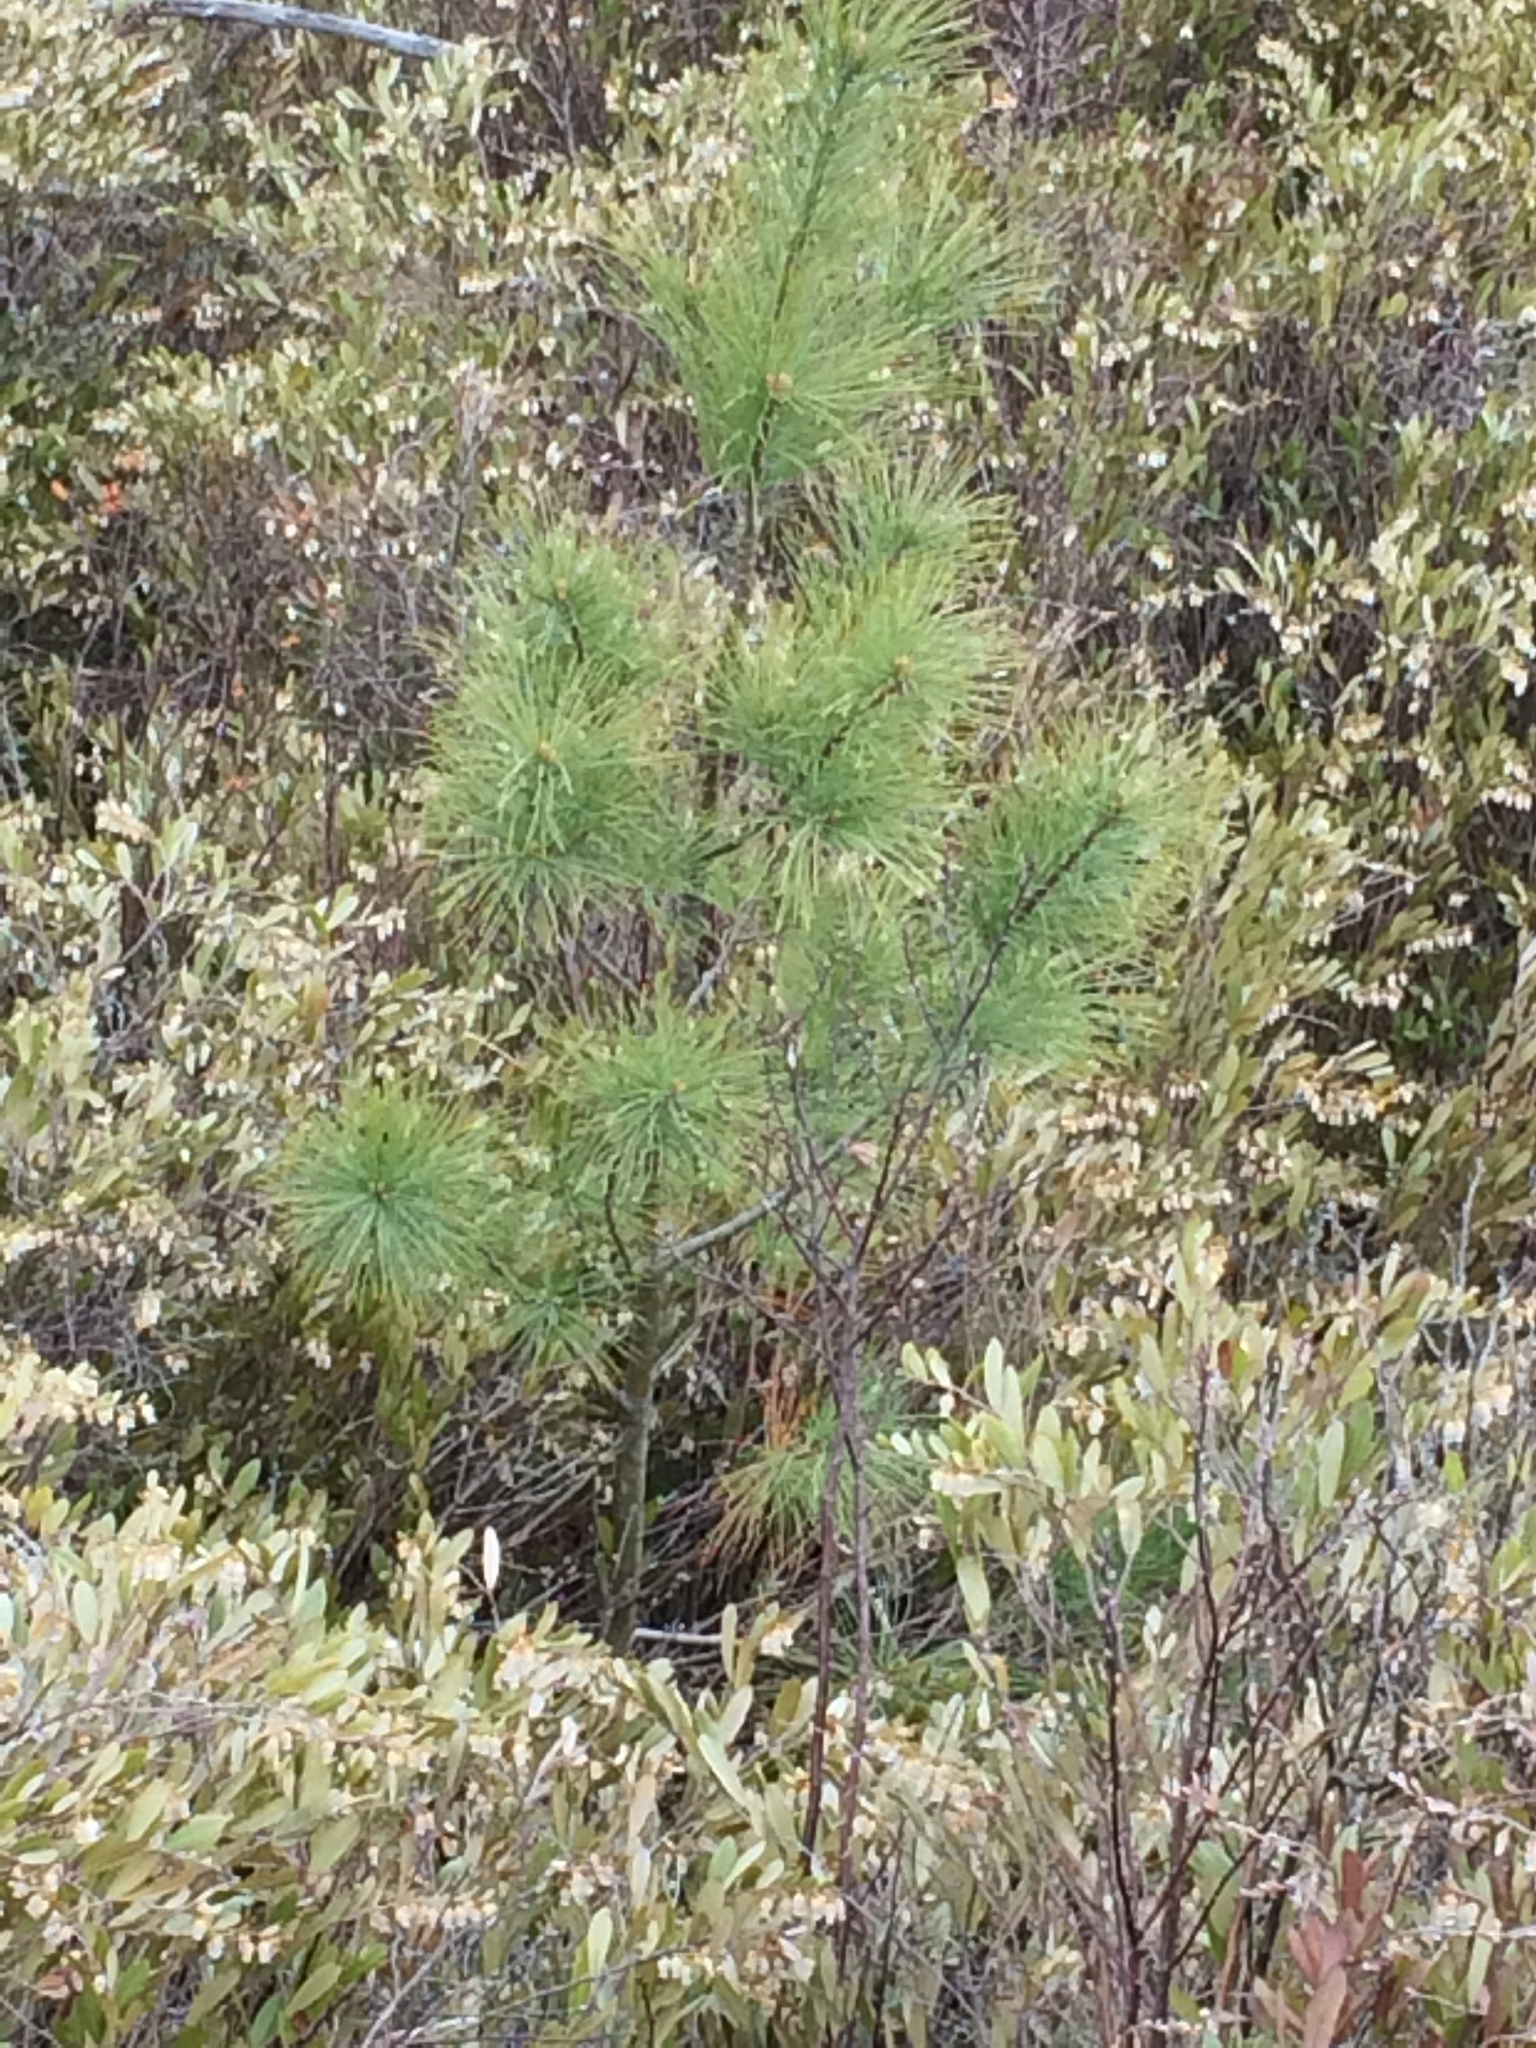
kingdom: Plantae
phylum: Tracheophyta
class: Pinopsida
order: Pinales
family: Pinaceae
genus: Pinus
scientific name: Pinus strobus
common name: Weymouth pine
